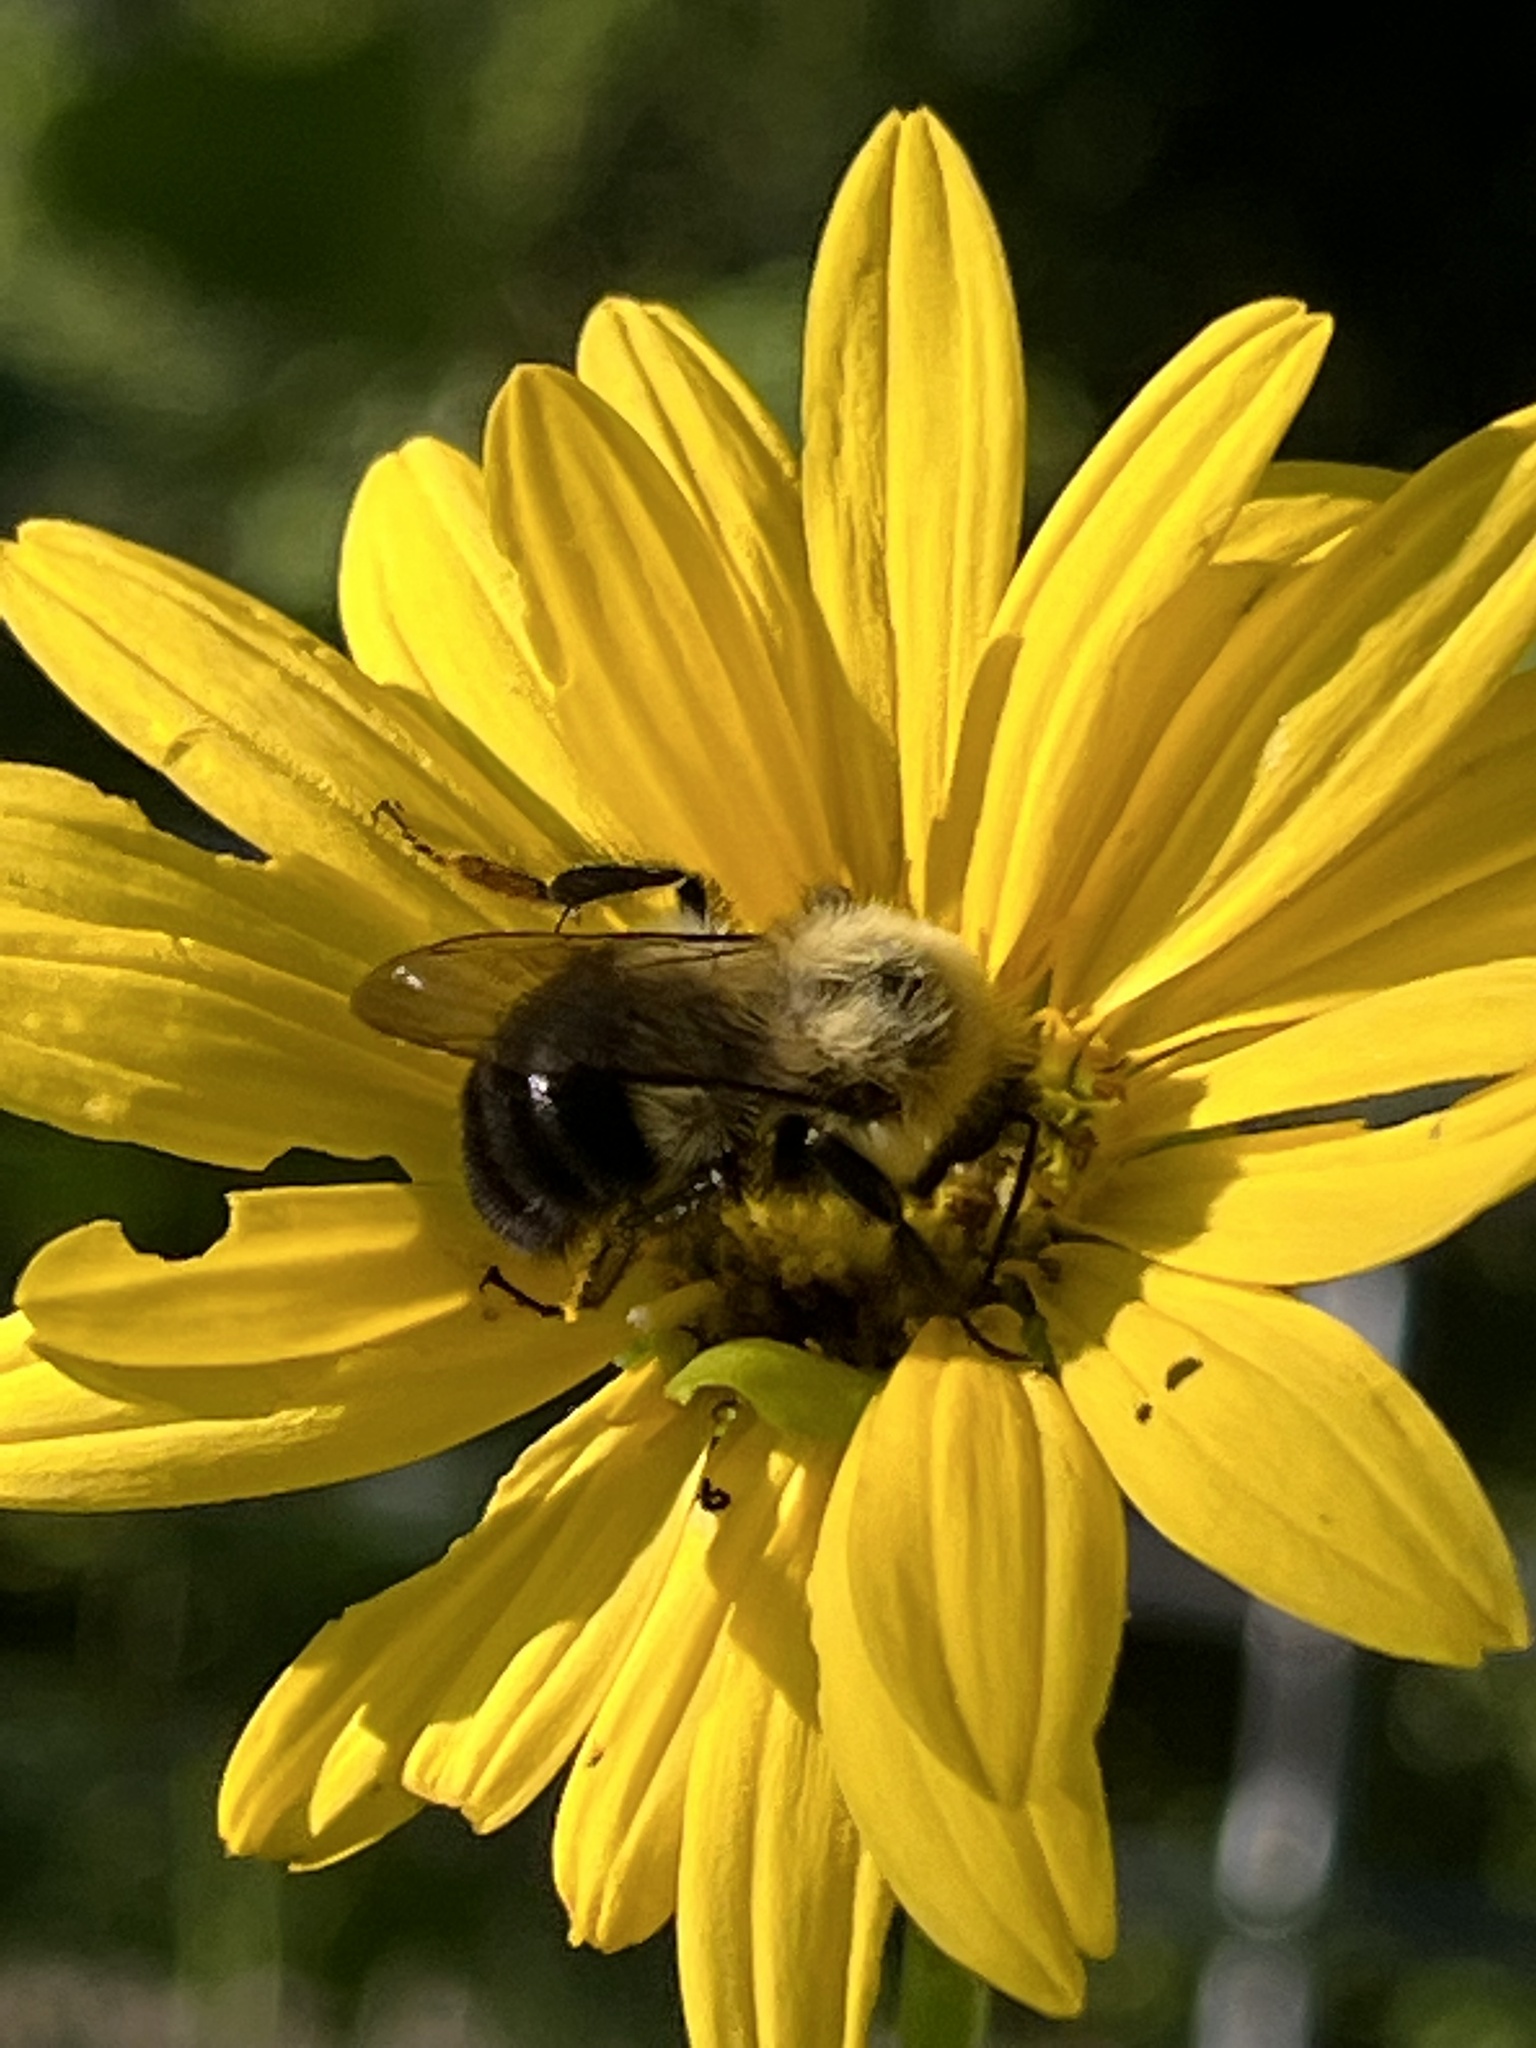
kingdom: Animalia
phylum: Arthropoda
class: Insecta
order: Hymenoptera
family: Apidae
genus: Bombus
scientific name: Bombus impatiens
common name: Common eastern bumble bee
